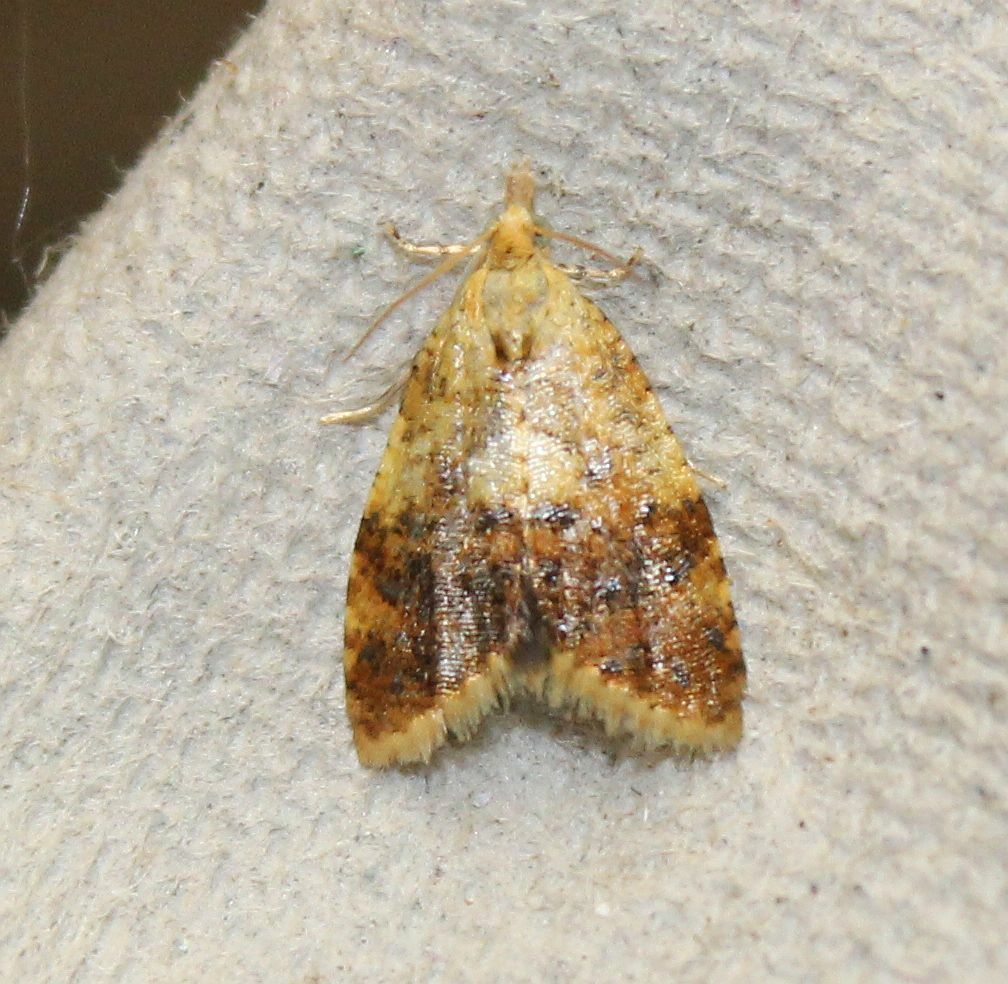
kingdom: Animalia
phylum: Arthropoda
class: Insecta
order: Lepidoptera
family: Tortricidae
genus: Pseudargyrotoza
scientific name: Pseudargyrotoza conwagana
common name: Yellow-spot twist
